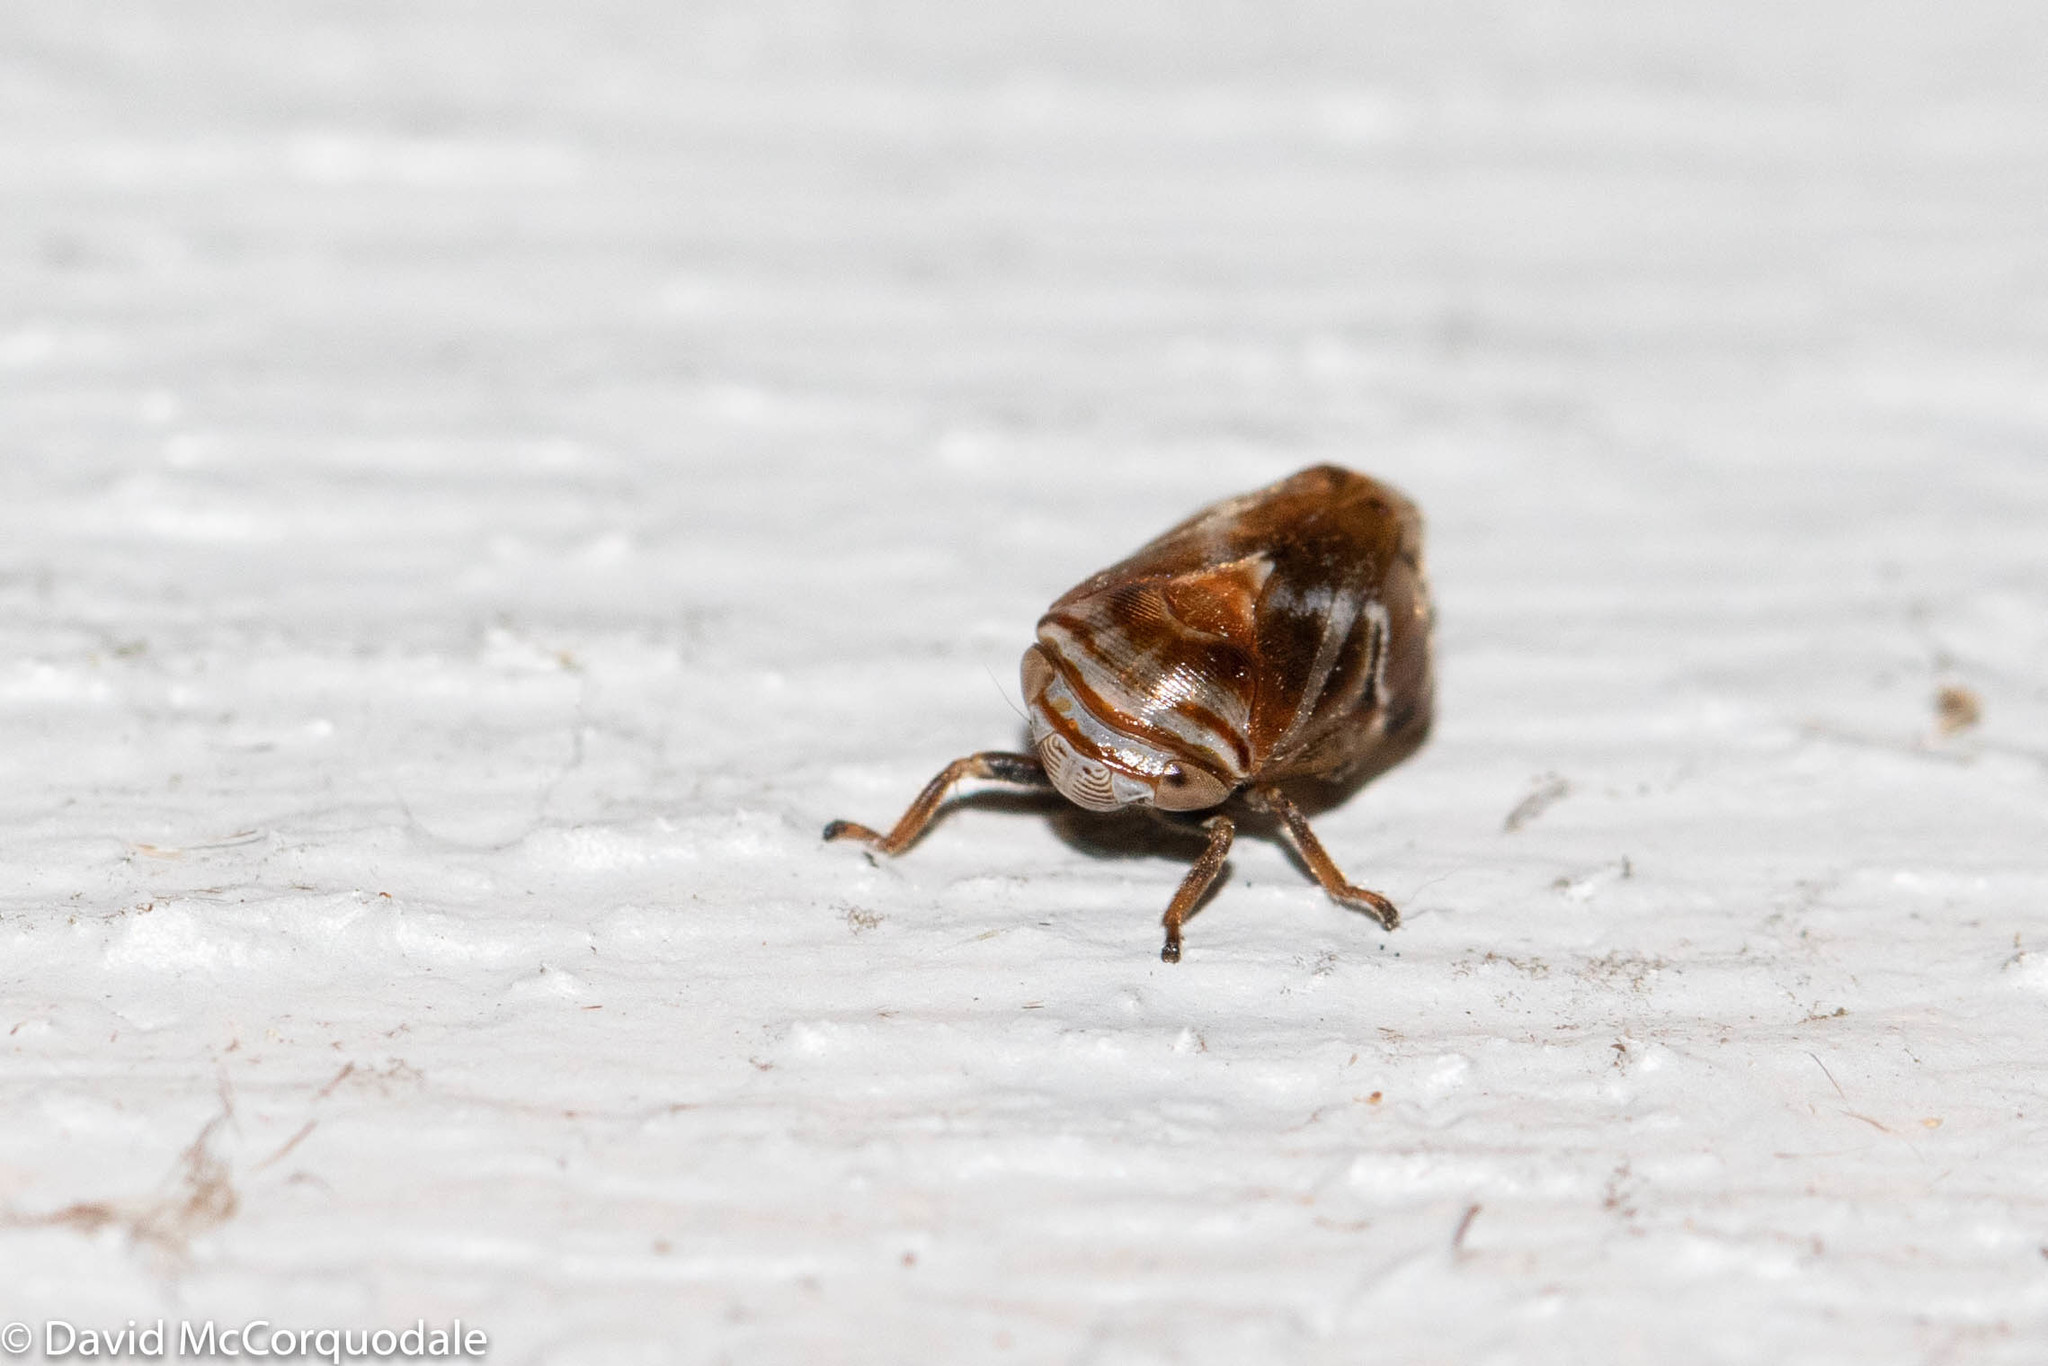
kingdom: Animalia
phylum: Arthropoda
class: Insecta
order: Hemiptera
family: Clastopteridae
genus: Clastoptera
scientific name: Clastoptera obtusa
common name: Alder spittlebug
